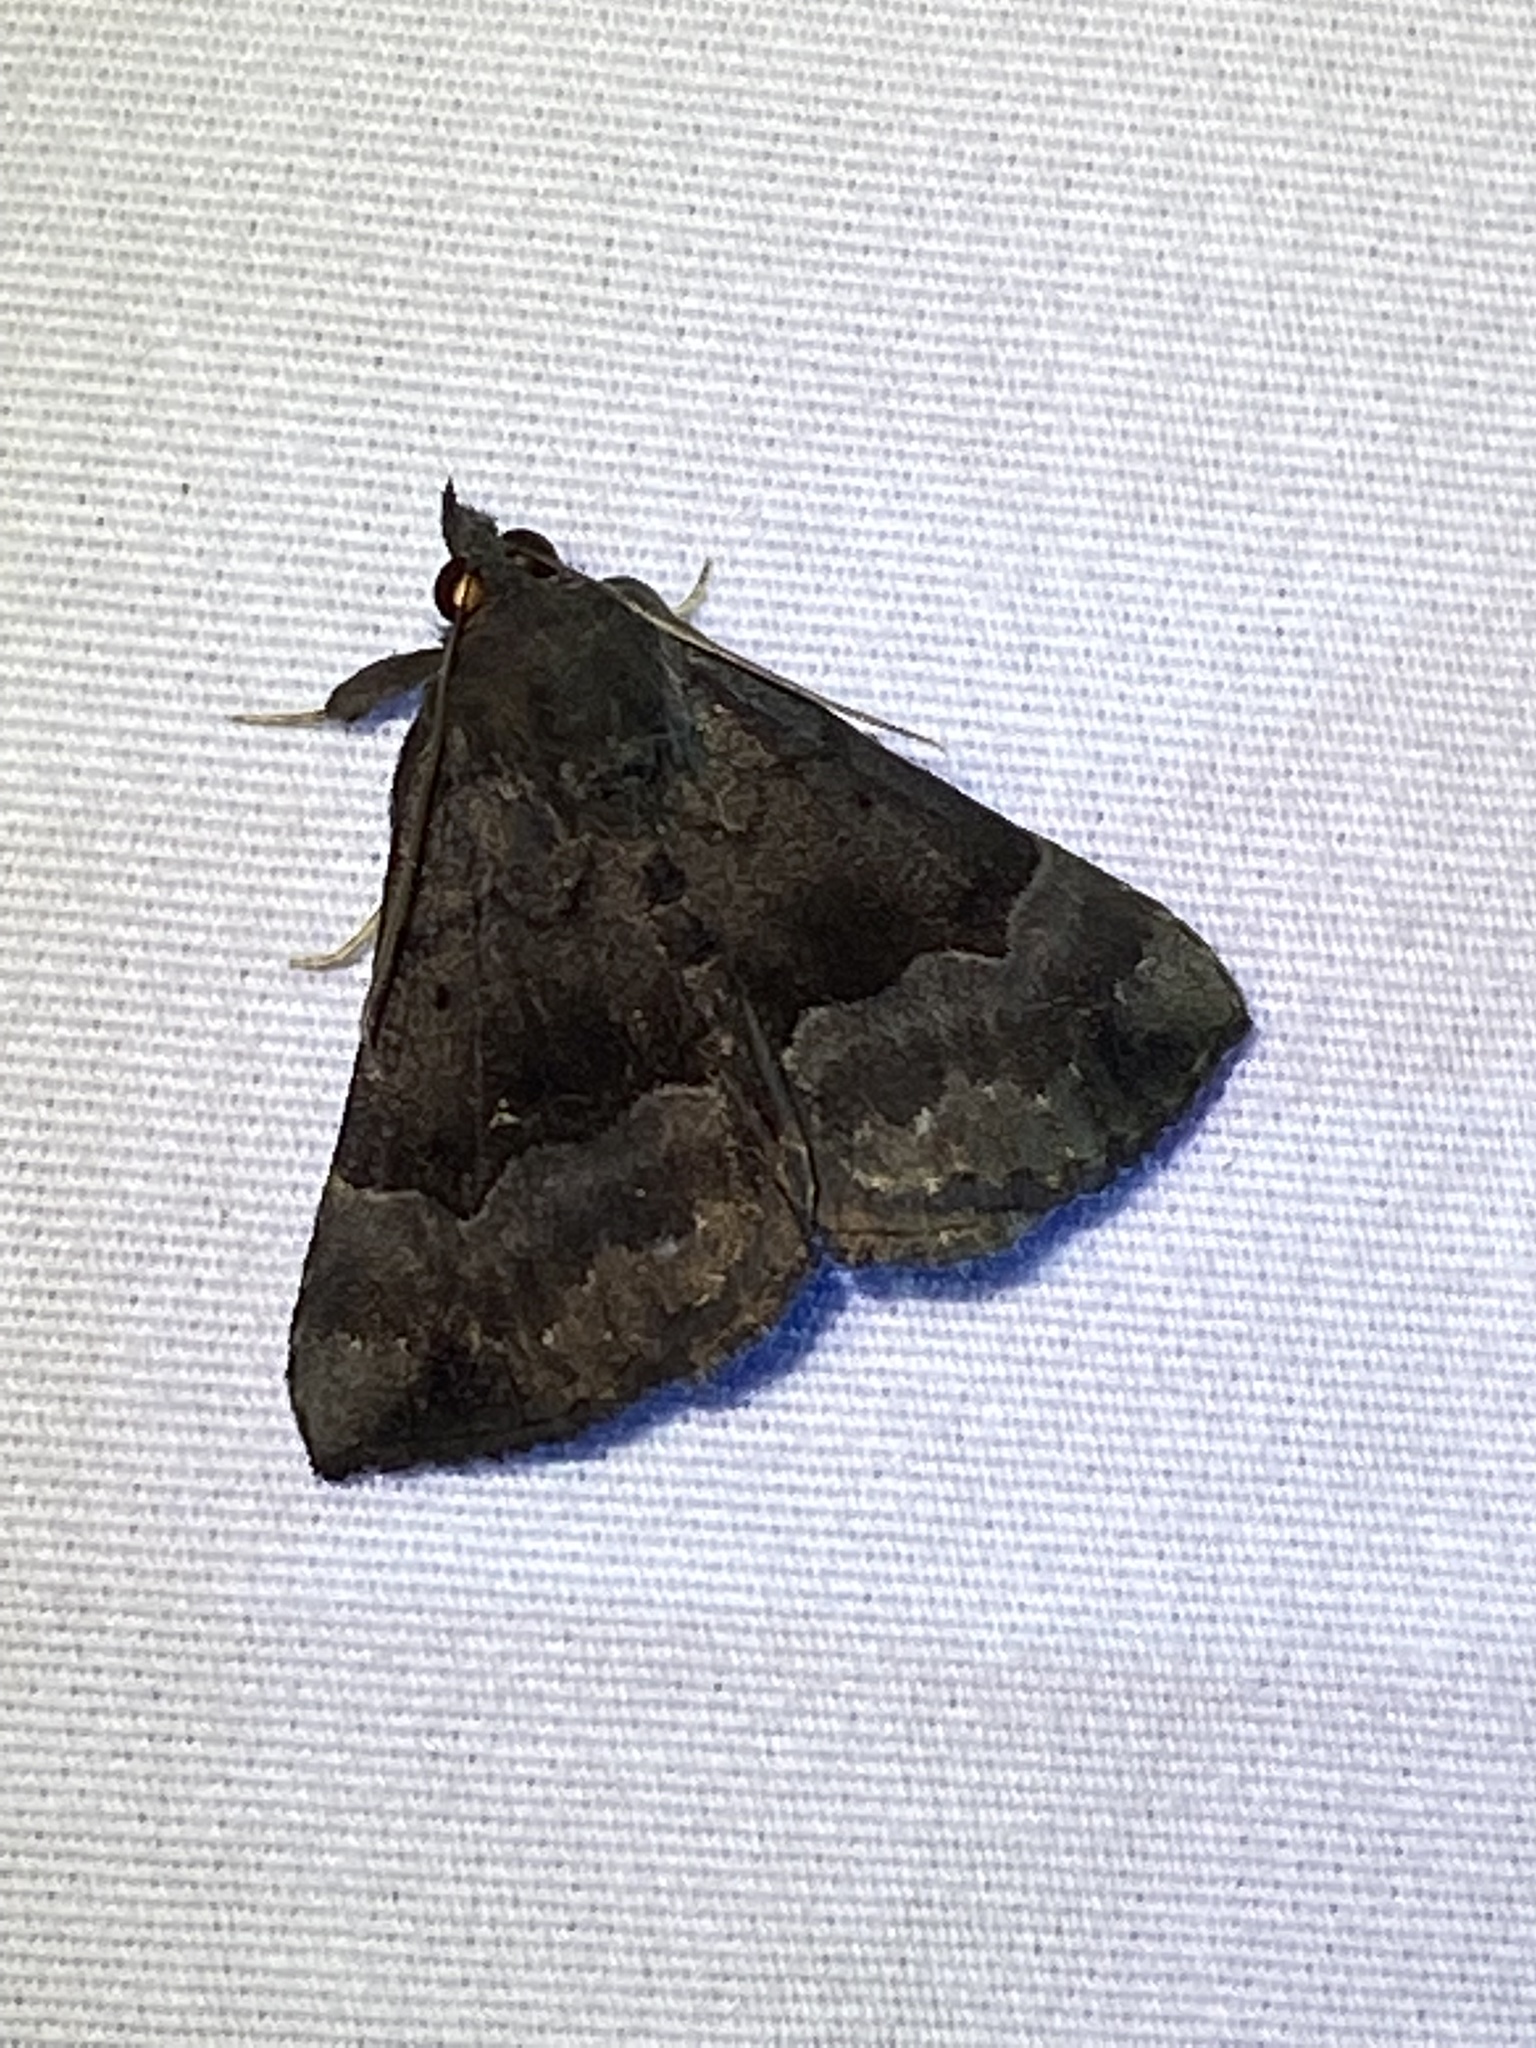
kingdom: Animalia
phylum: Arthropoda
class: Insecta
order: Lepidoptera
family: Erebidae
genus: Hypena
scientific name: Hypena madefactalis
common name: Gray-edged snout
